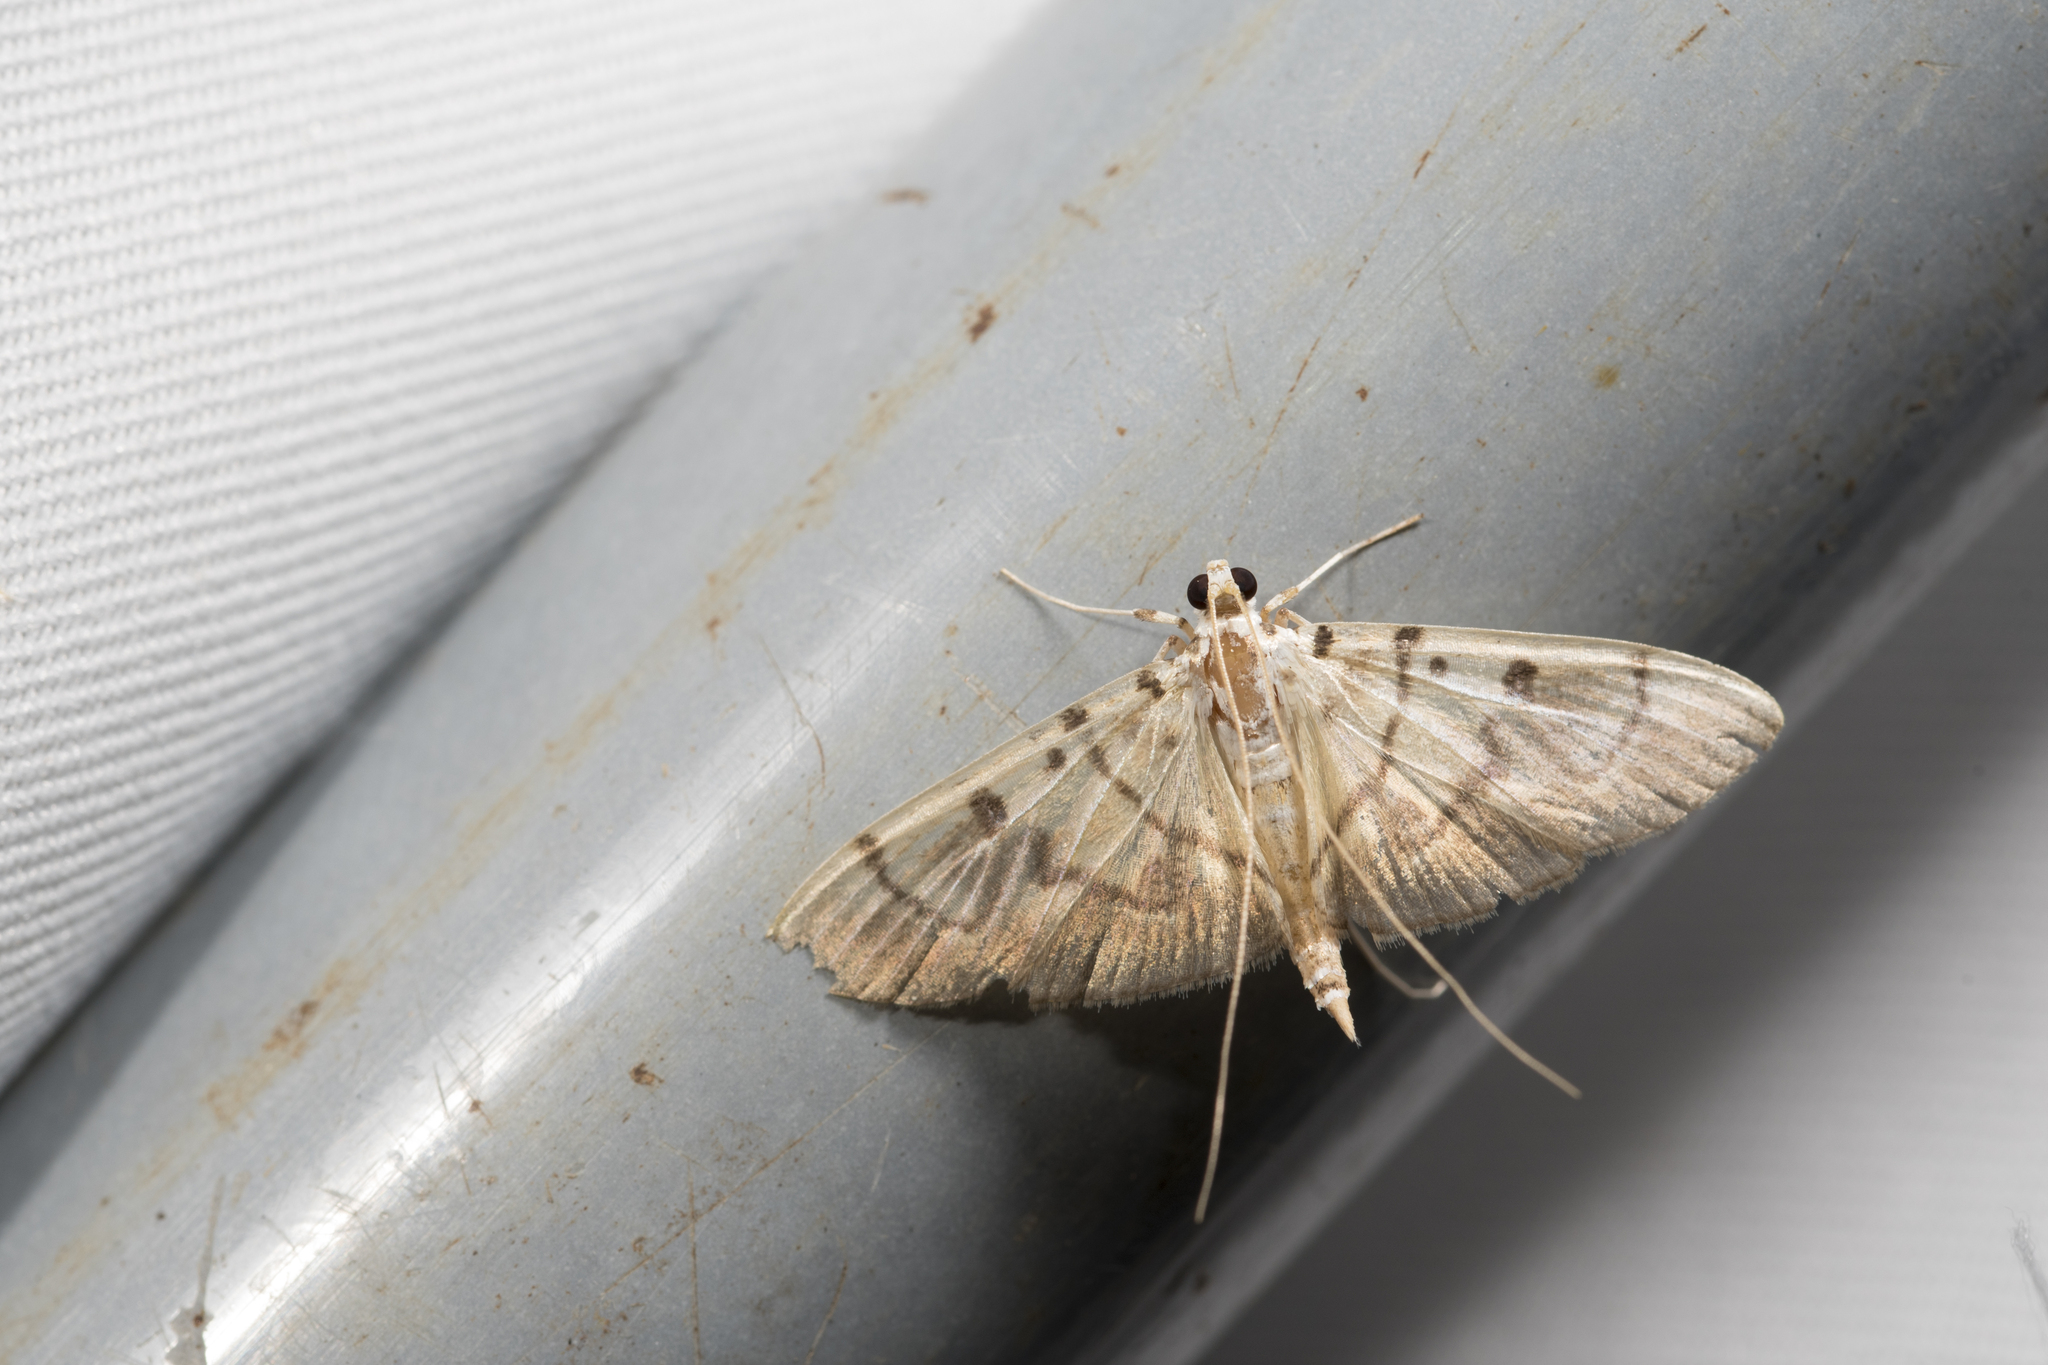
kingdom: Animalia
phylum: Arthropoda
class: Insecta
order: Lepidoptera
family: Crambidae
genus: Dichocrocis
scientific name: Dichocrocis definita
